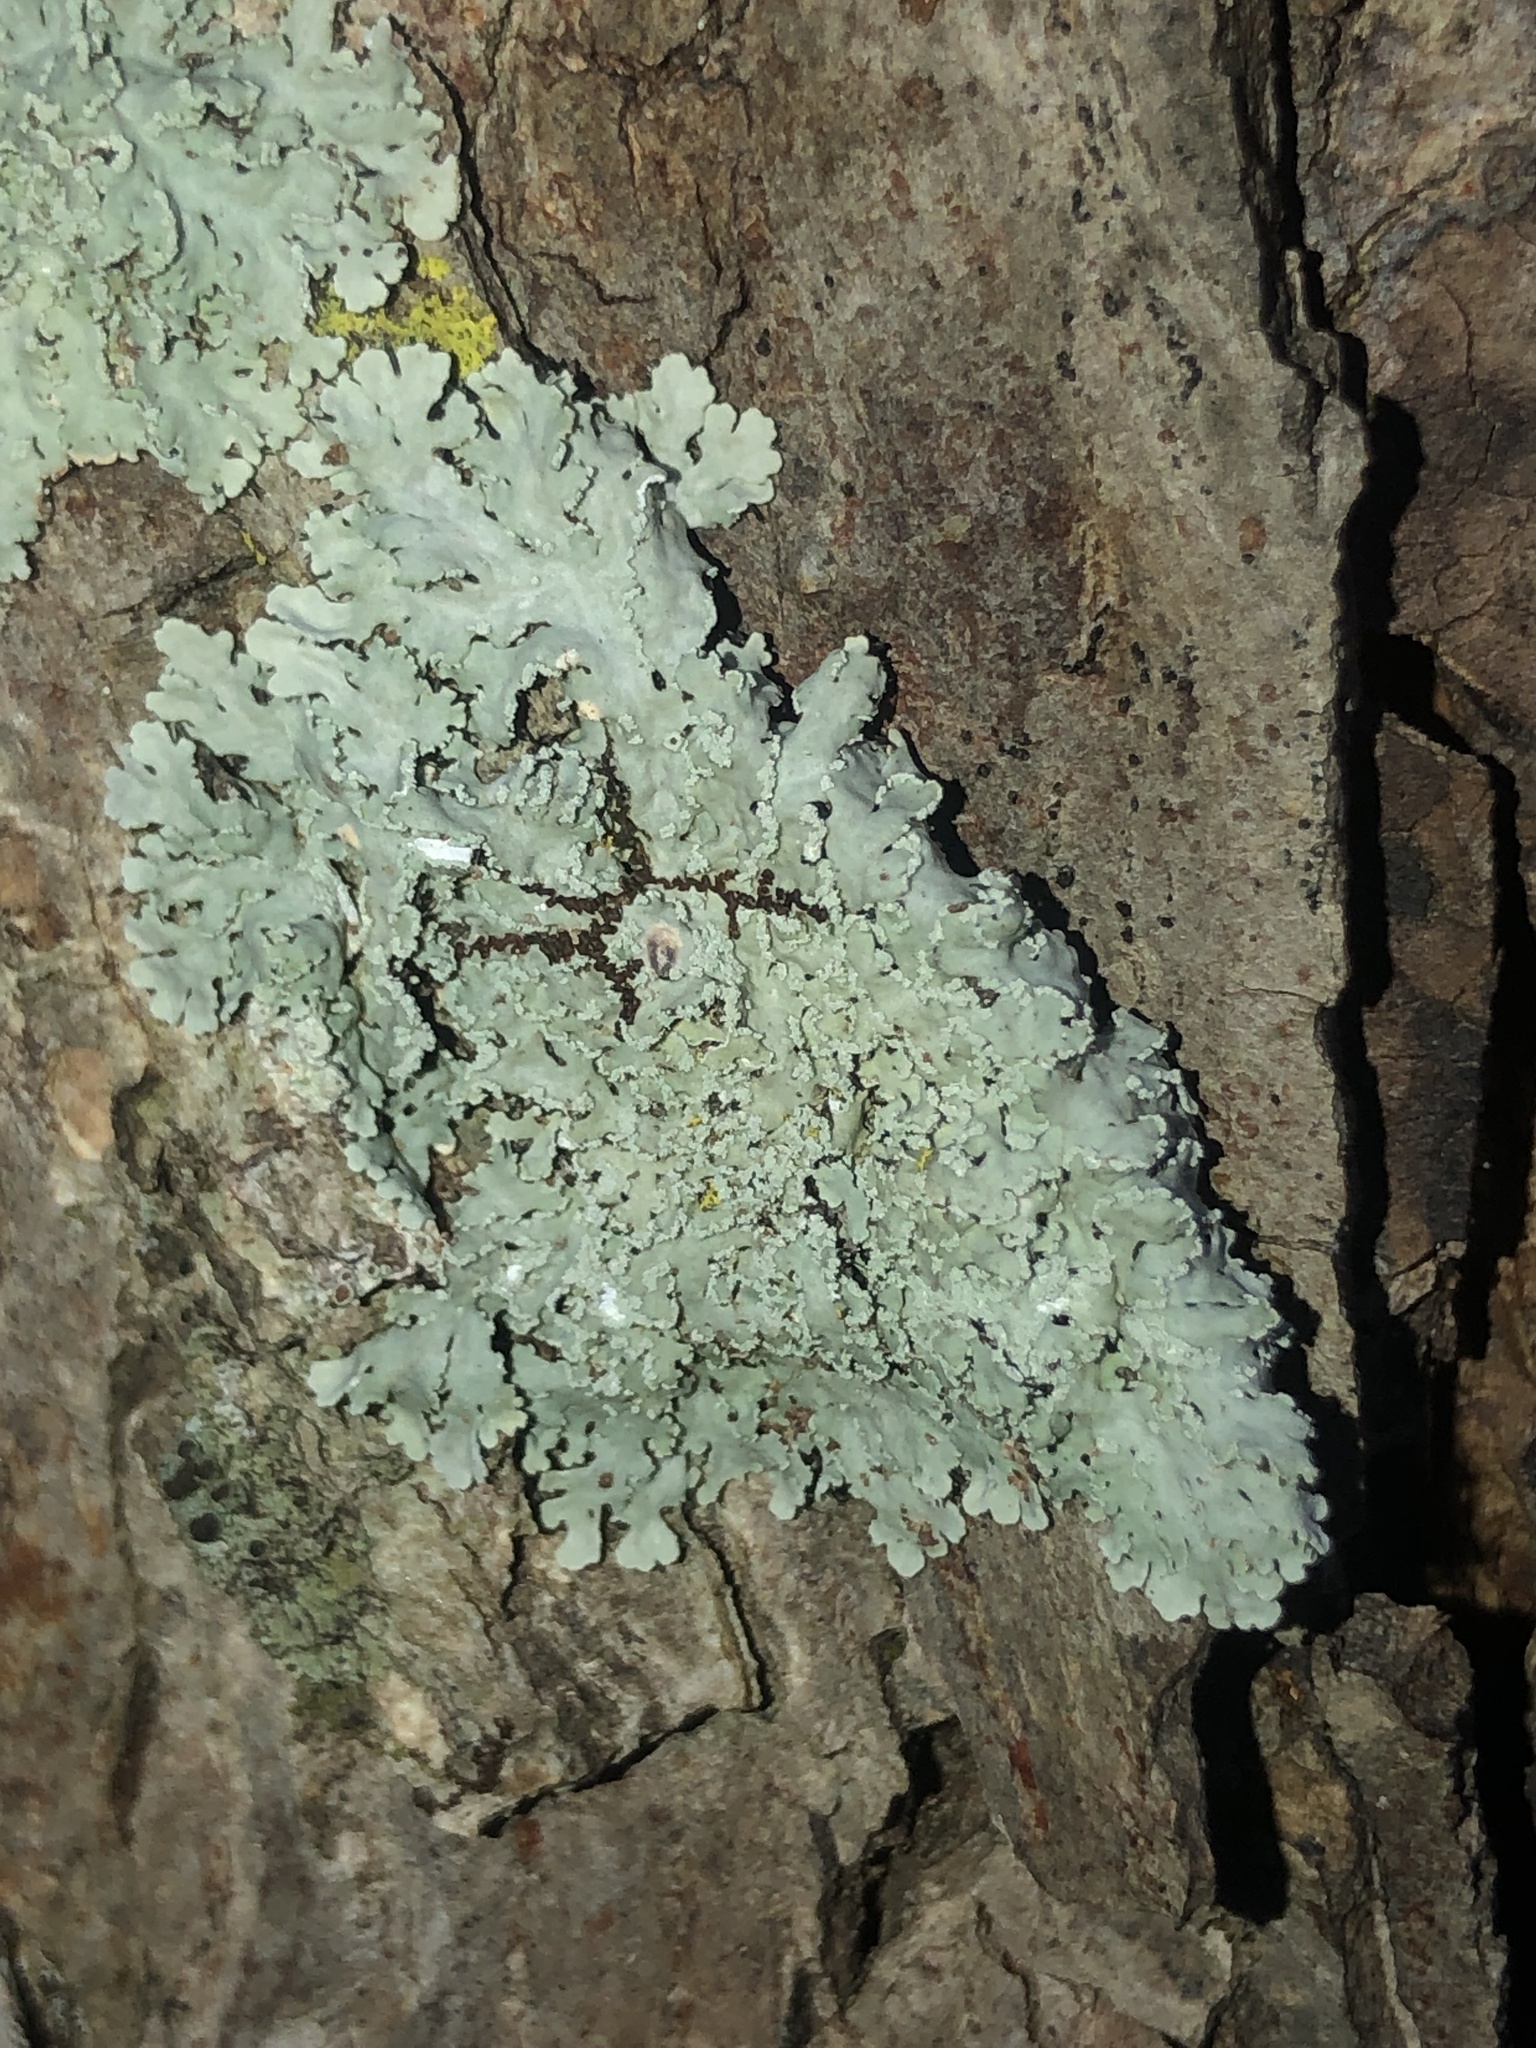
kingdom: Fungi
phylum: Ascomycota
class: Lecanoromycetes
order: Caliciales
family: Physciaceae
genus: Polyblastidium
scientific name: Polyblastidium albicans
